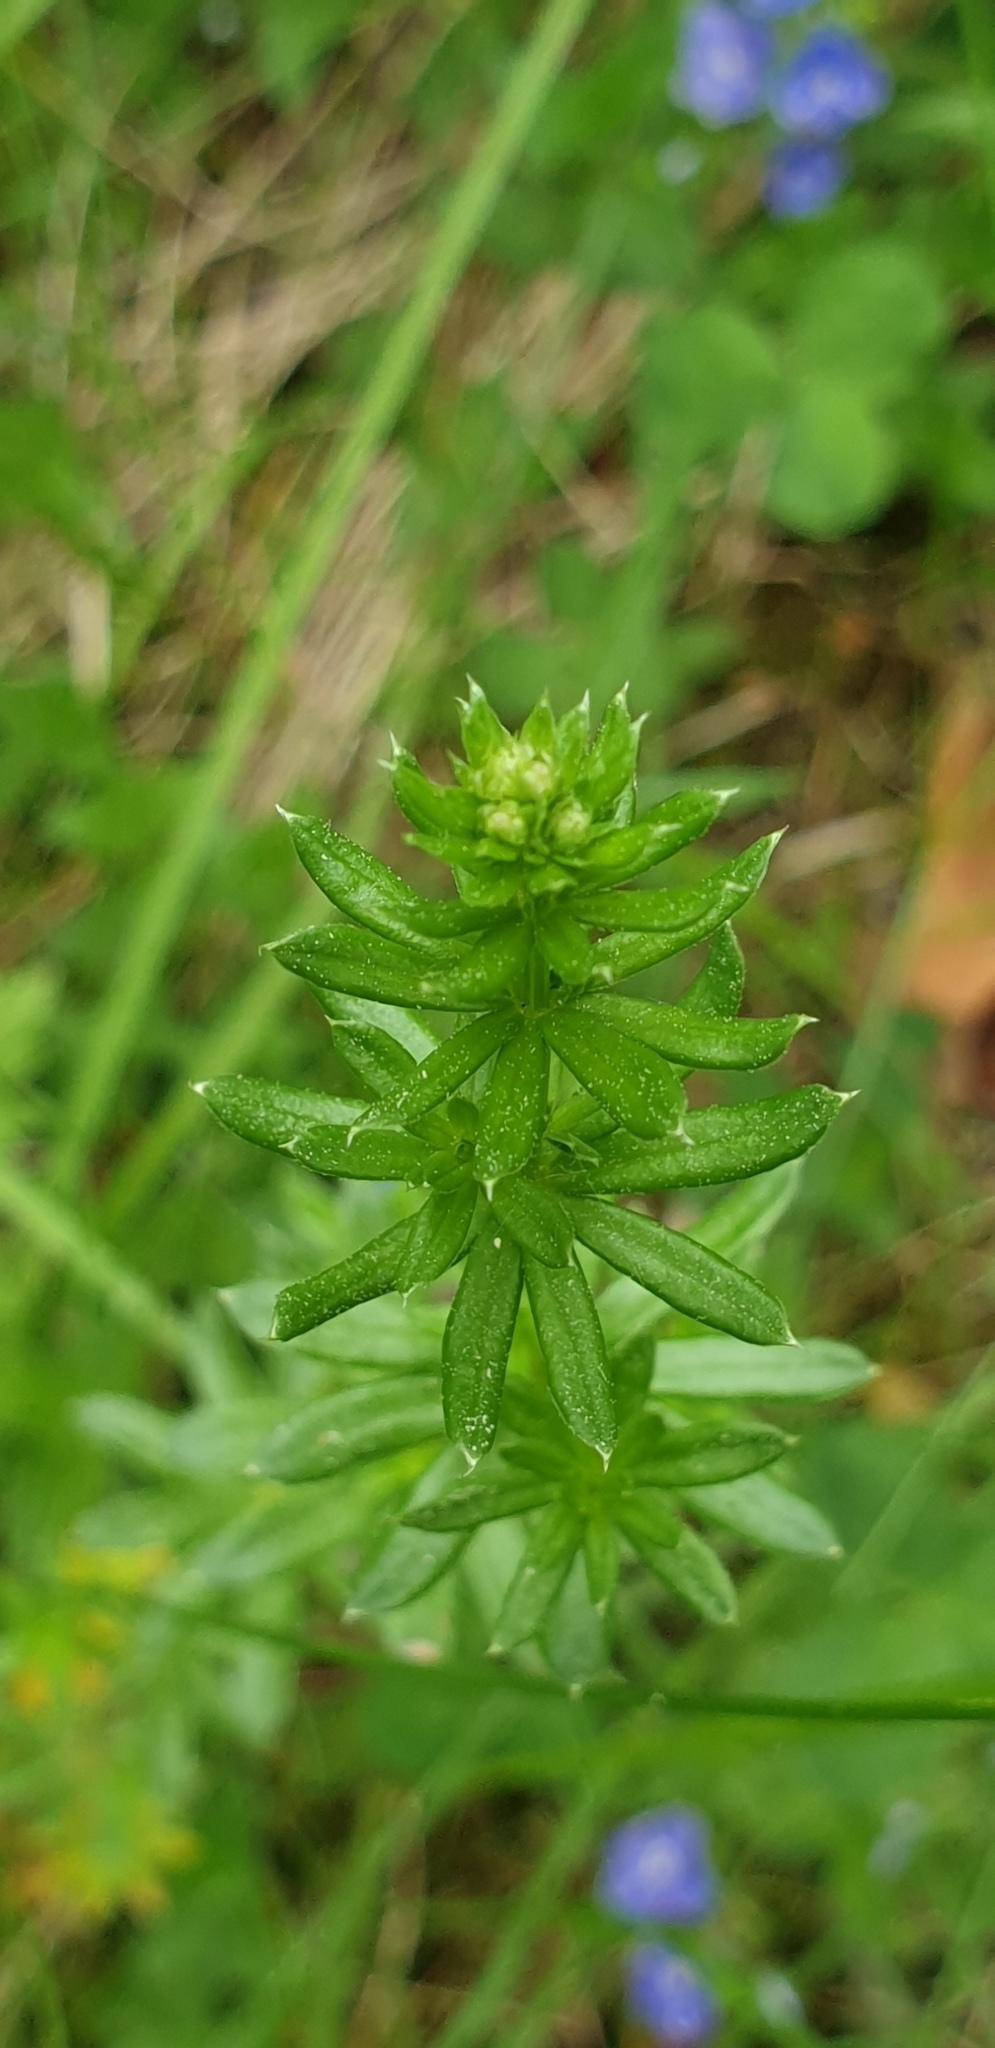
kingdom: Plantae
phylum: Tracheophyta
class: Magnoliopsida
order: Gentianales
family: Rubiaceae
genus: Galium
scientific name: Galium mollugo
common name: Hedge bedstraw
